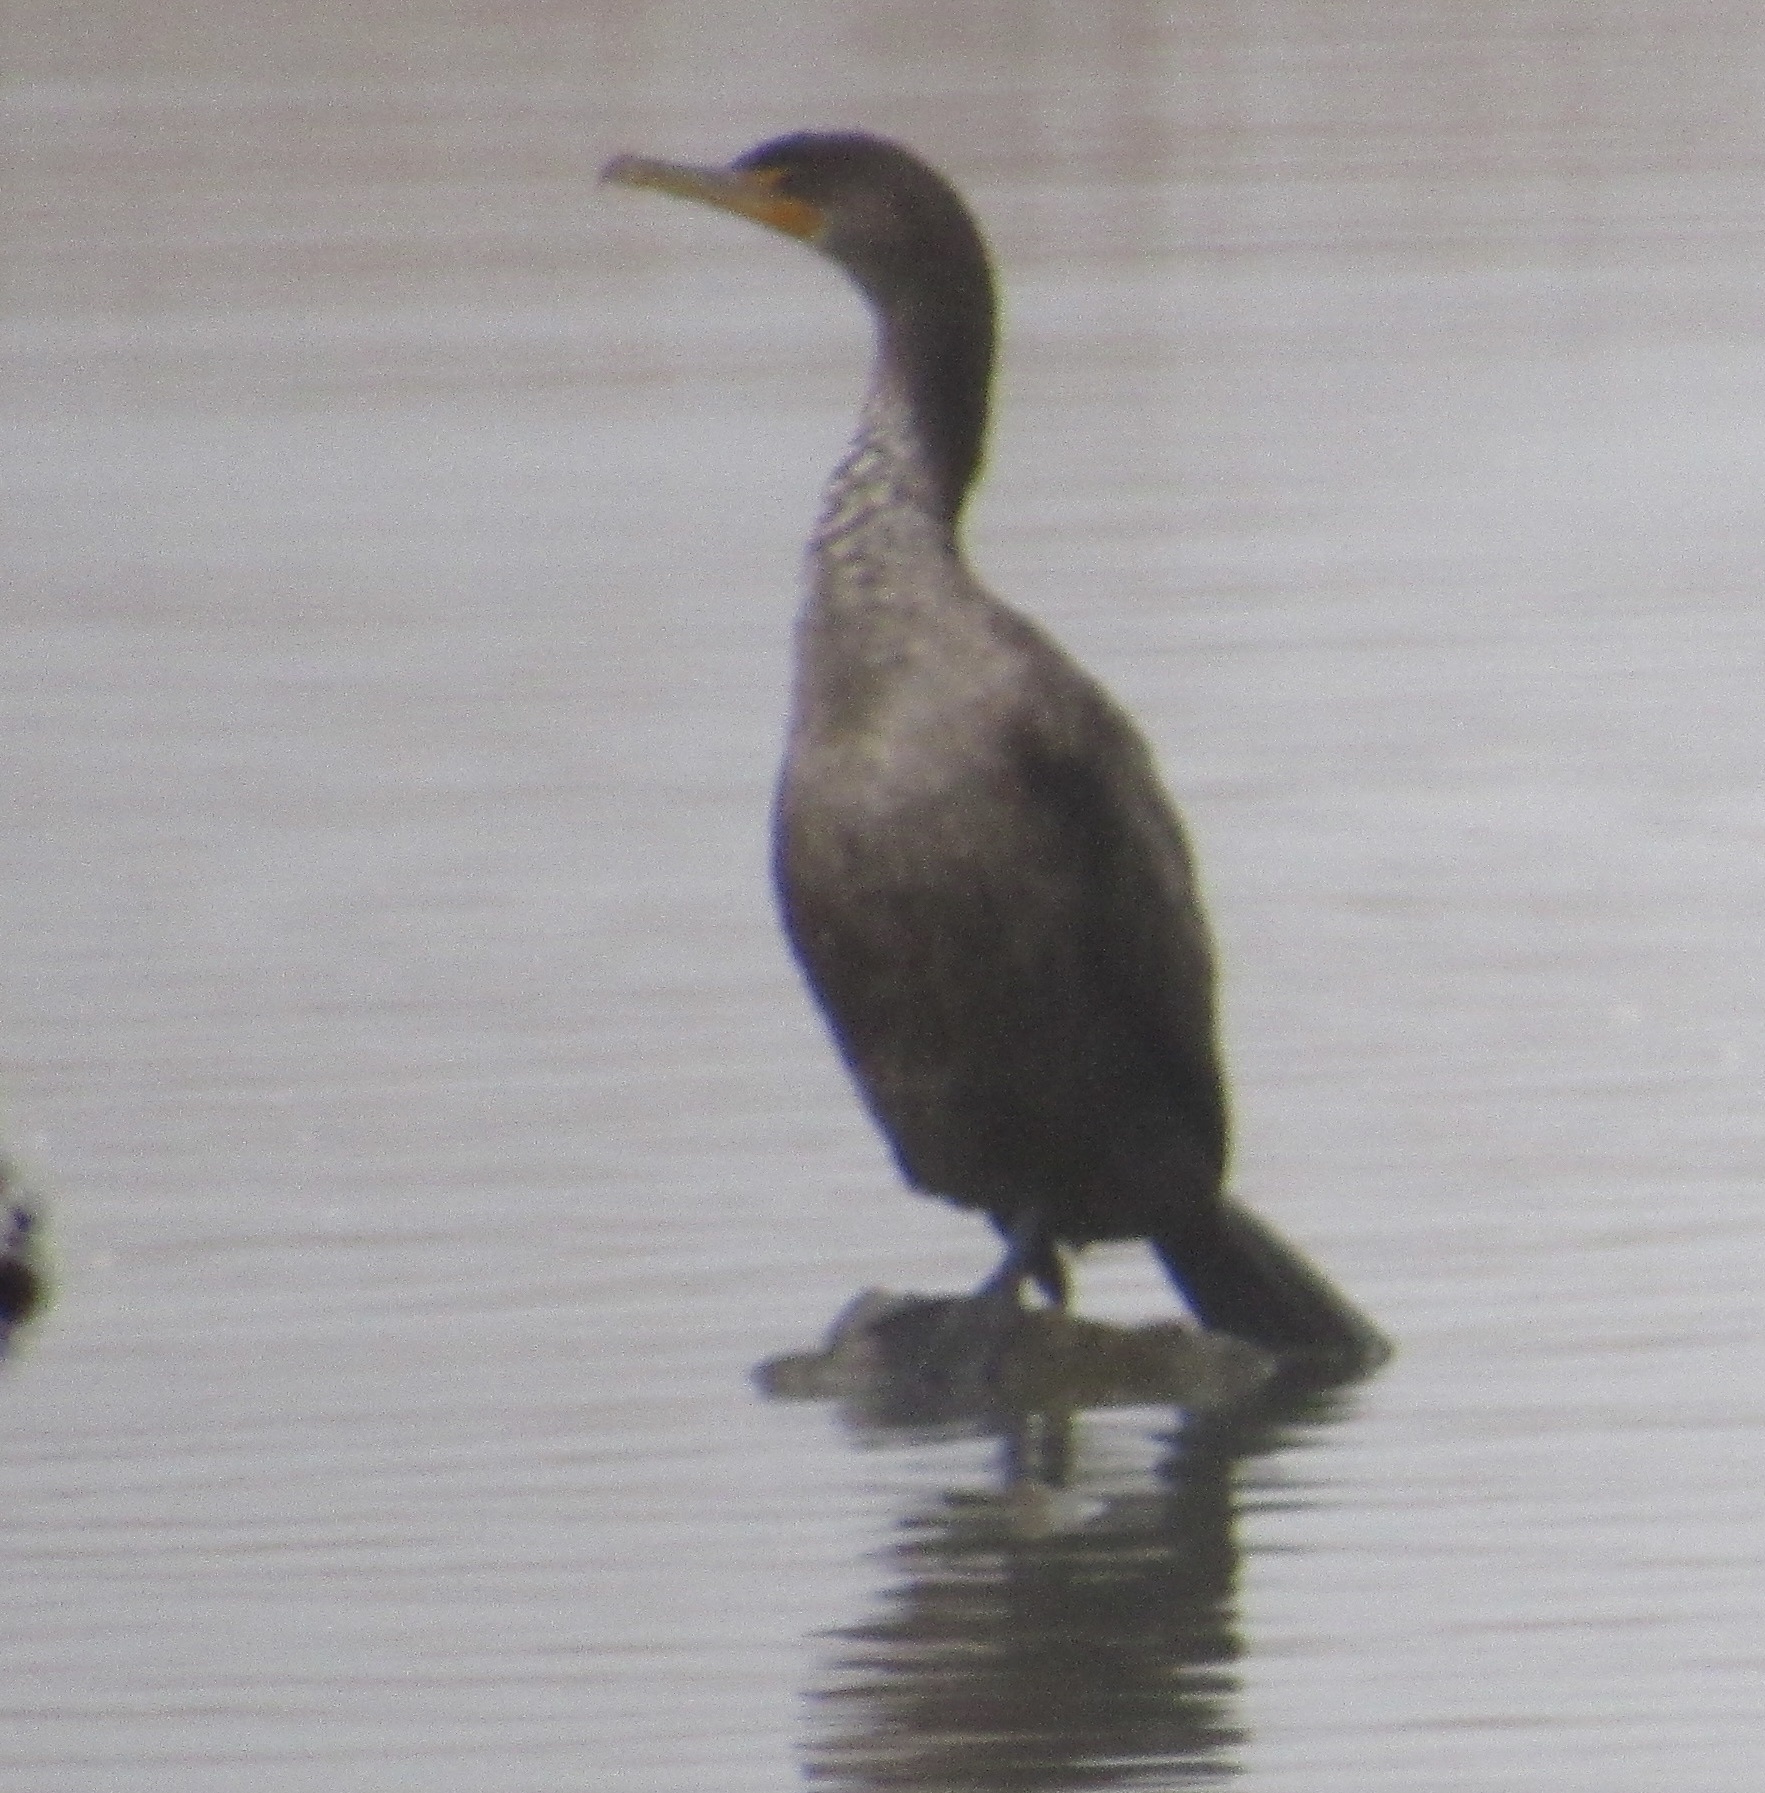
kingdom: Animalia
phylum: Chordata
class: Aves
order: Suliformes
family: Phalacrocoracidae
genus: Phalacrocorax
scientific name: Phalacrocorax auritus
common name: Double-crested cormorant
